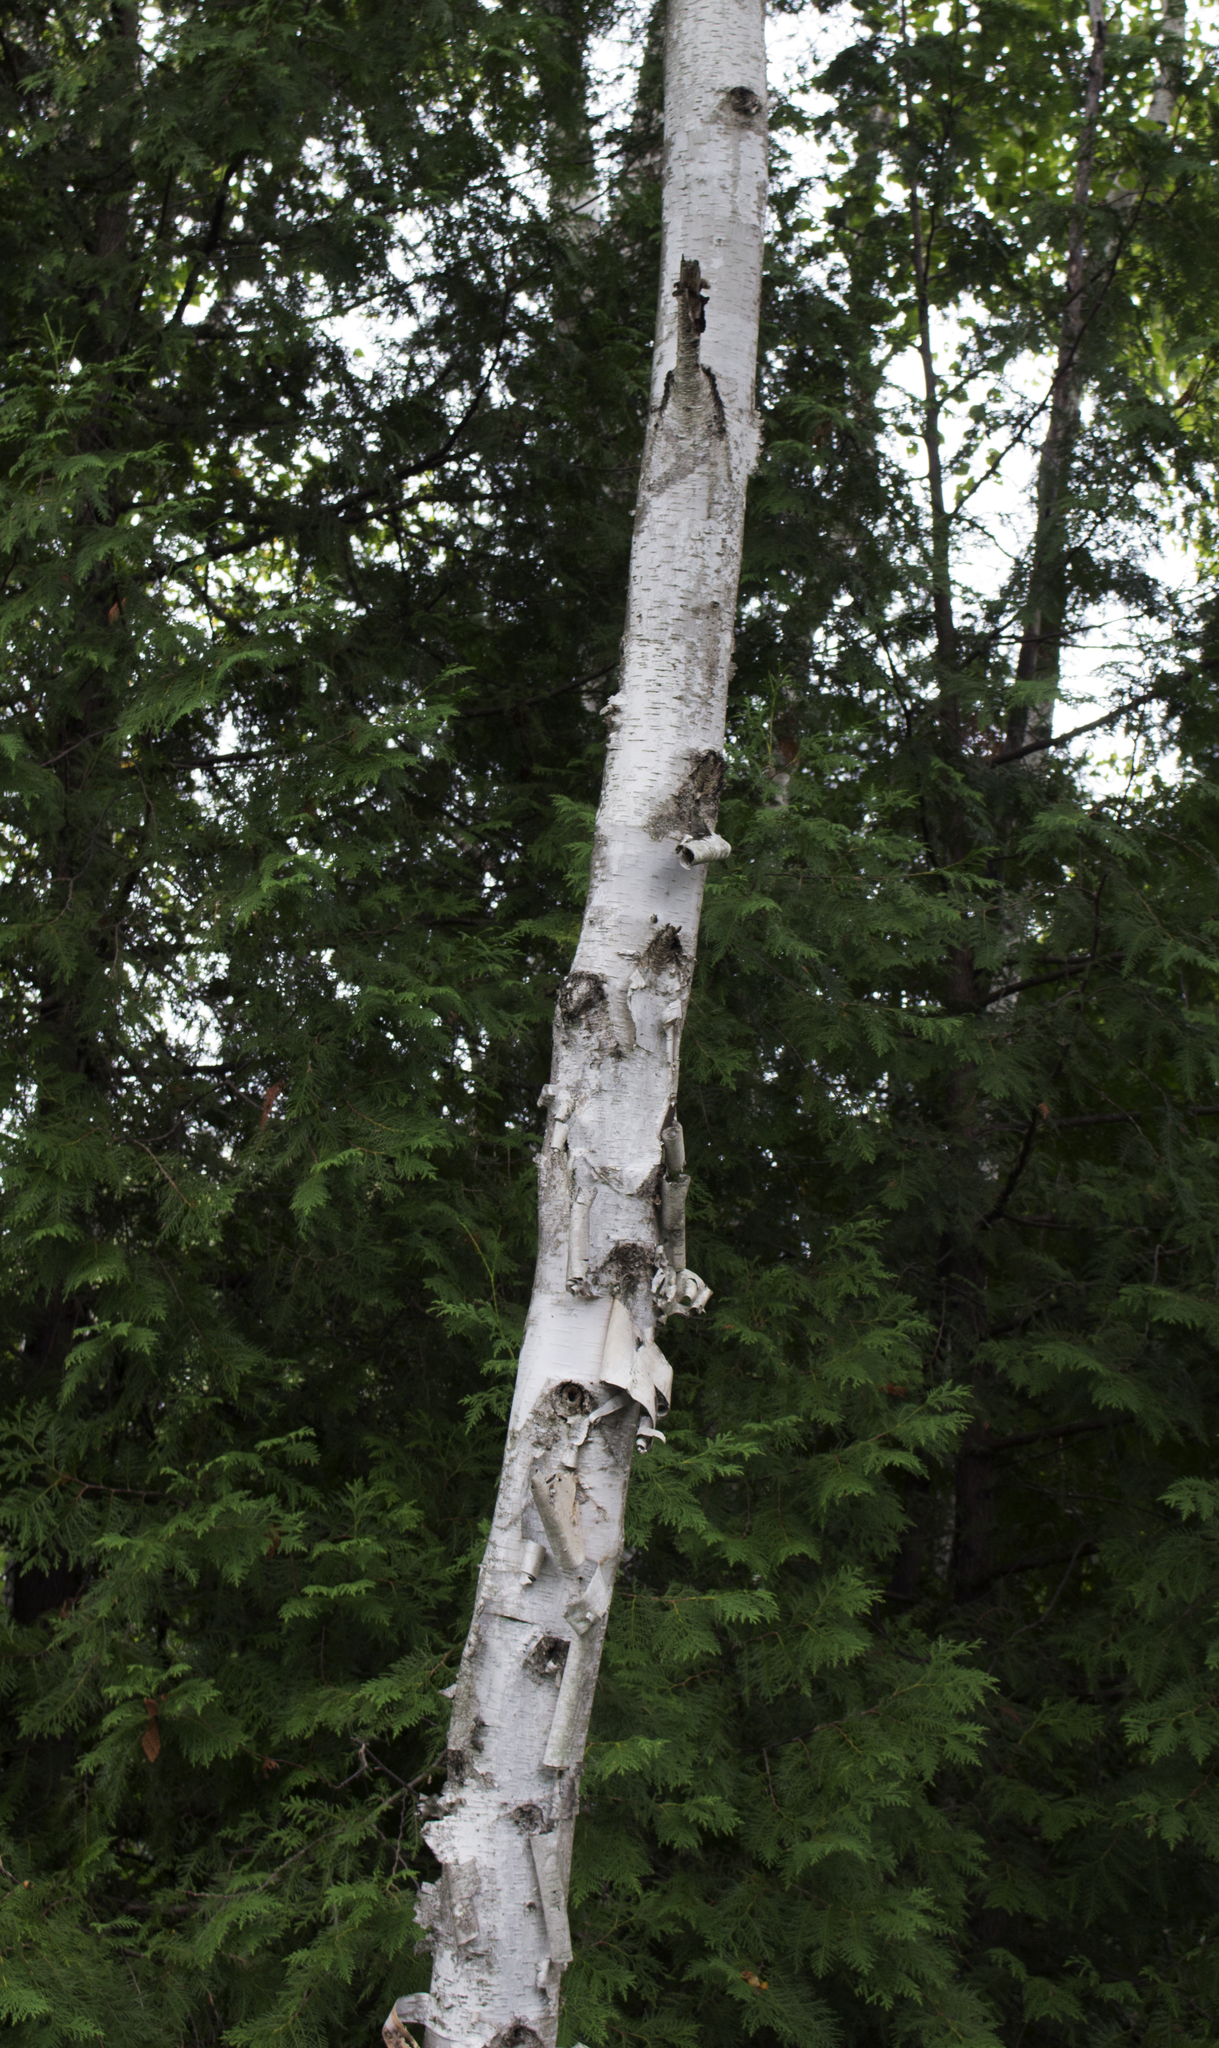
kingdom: Plantae
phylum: Tracheophyta
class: Magnoliopsida
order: Fagales
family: Betulaceae
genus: Betula
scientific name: Betula papyrifera
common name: Paper birch
